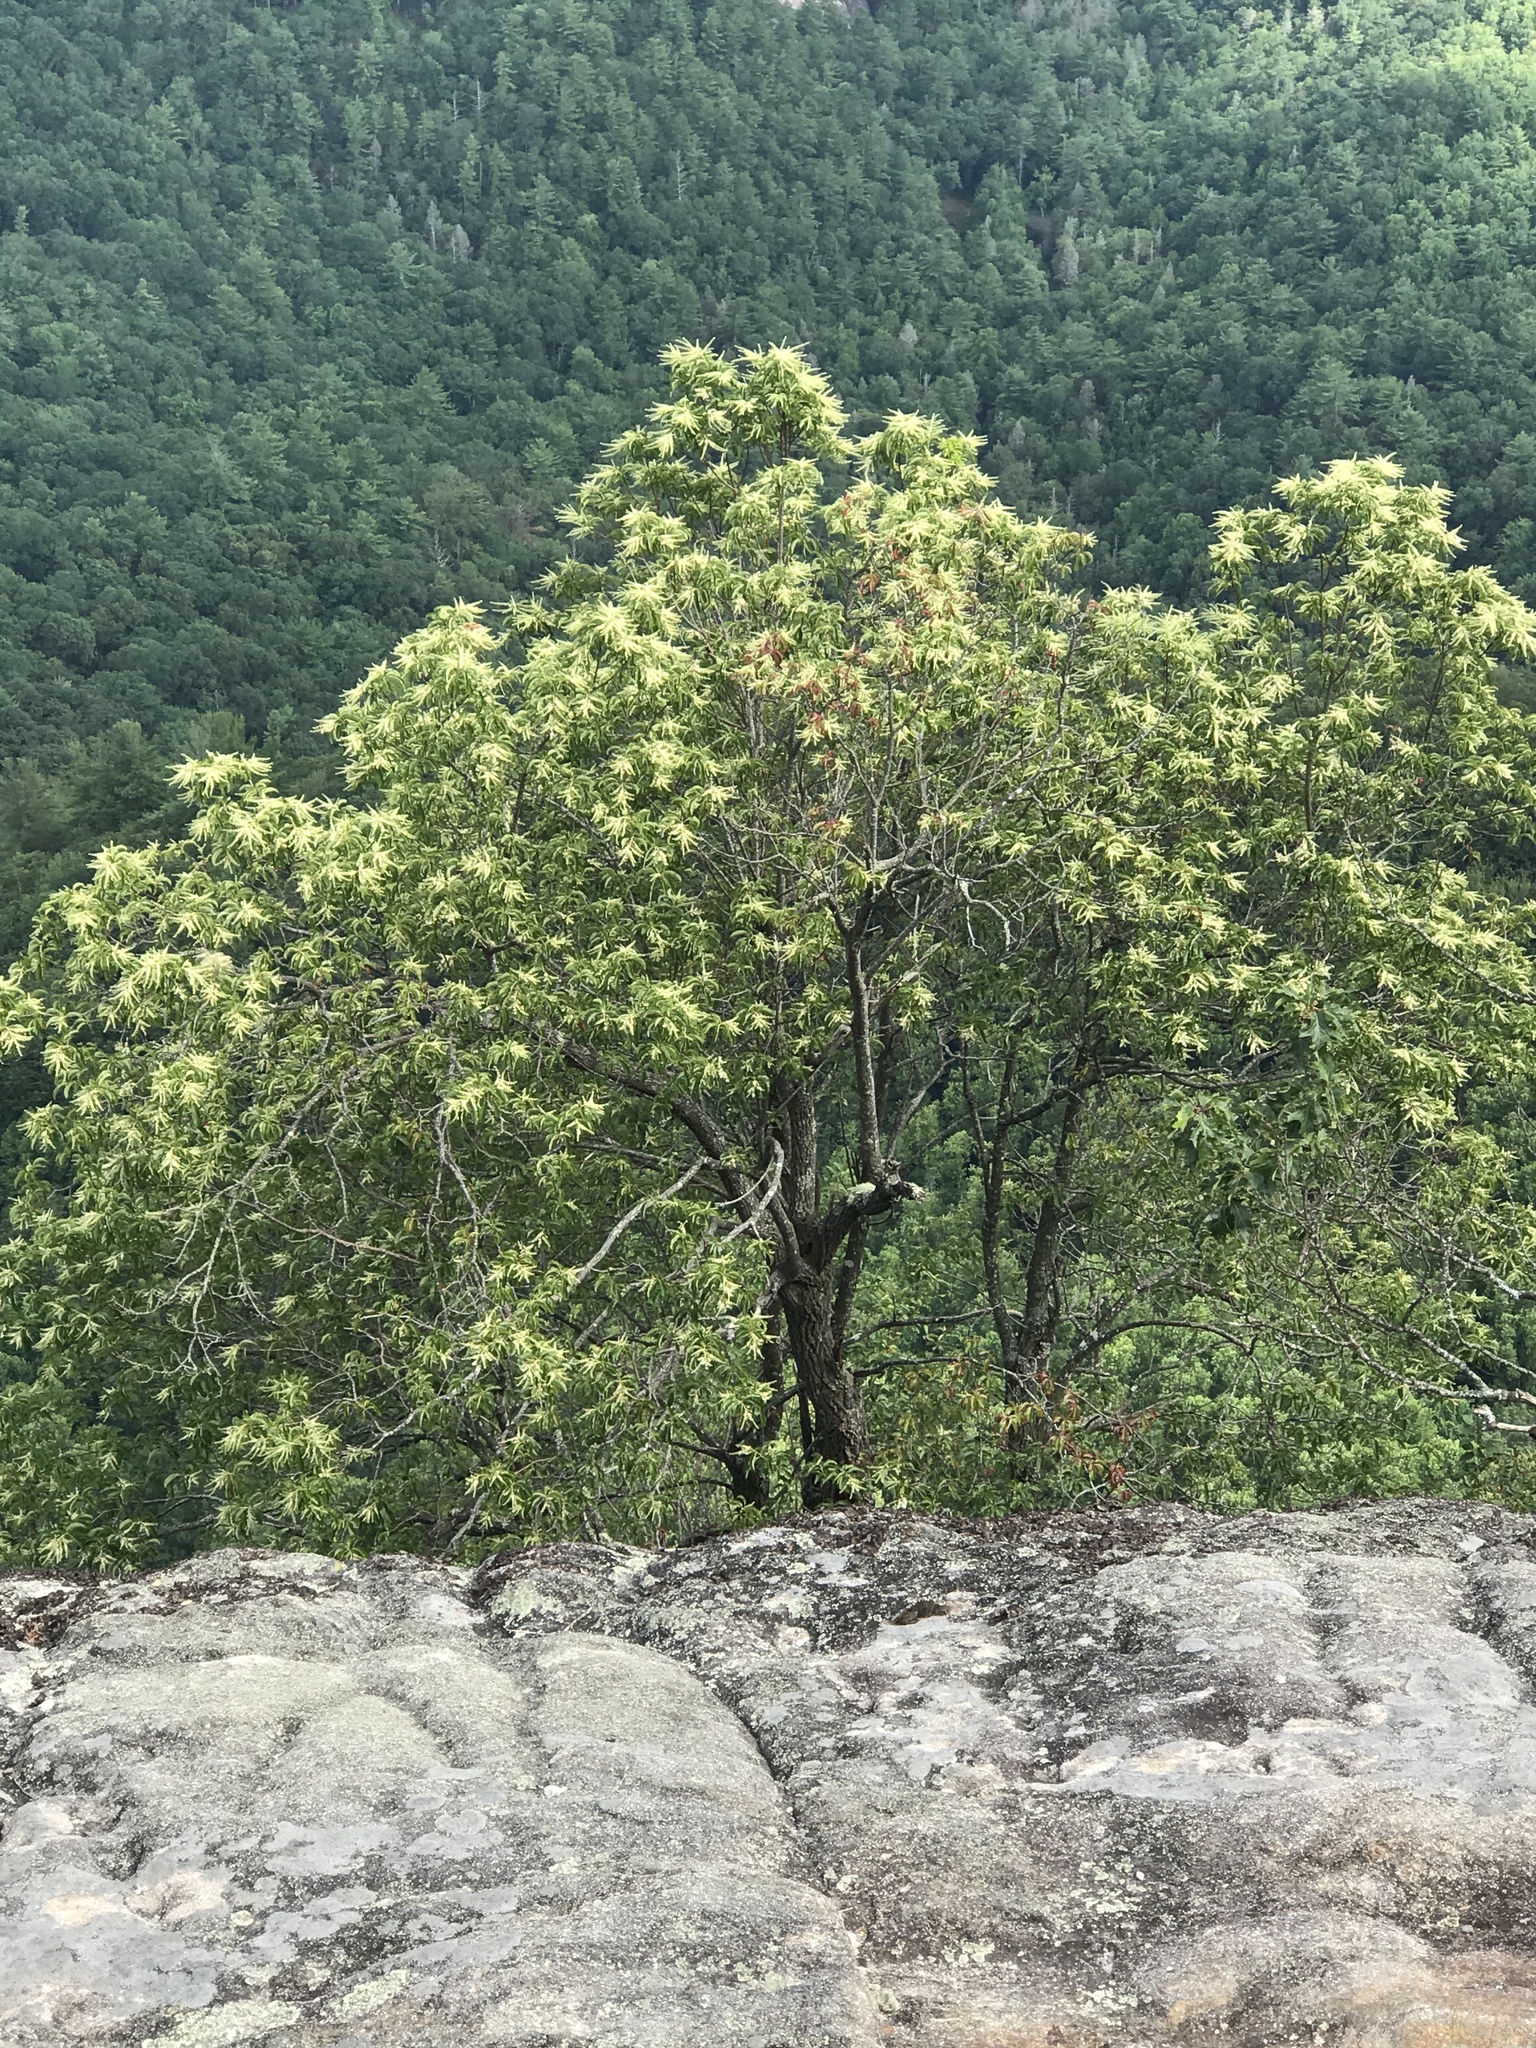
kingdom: Plantae
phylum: Tracheophyta
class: Magnoliopsida
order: Ericales
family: Ericaceae
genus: Oxydendrum
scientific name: Oxydendrum arboreum
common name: Sourwood
